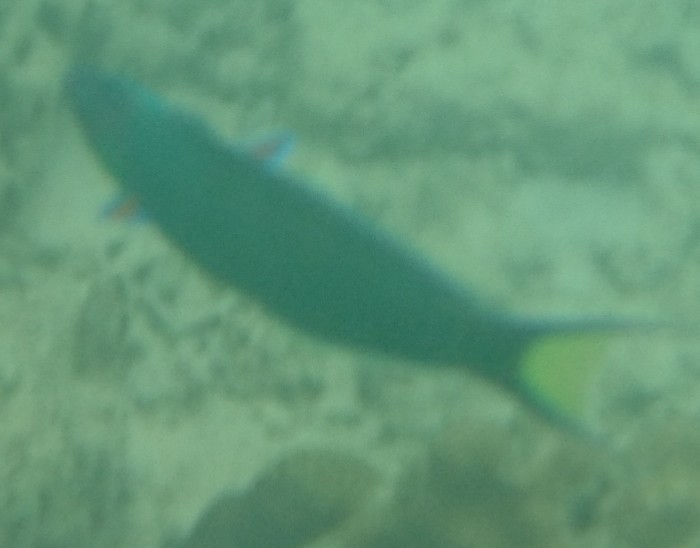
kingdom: Animalia
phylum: Chordata
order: Perciformes
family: Labridae
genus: Thalassoma
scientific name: Thalassoma lunare
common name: Blue wrasse
